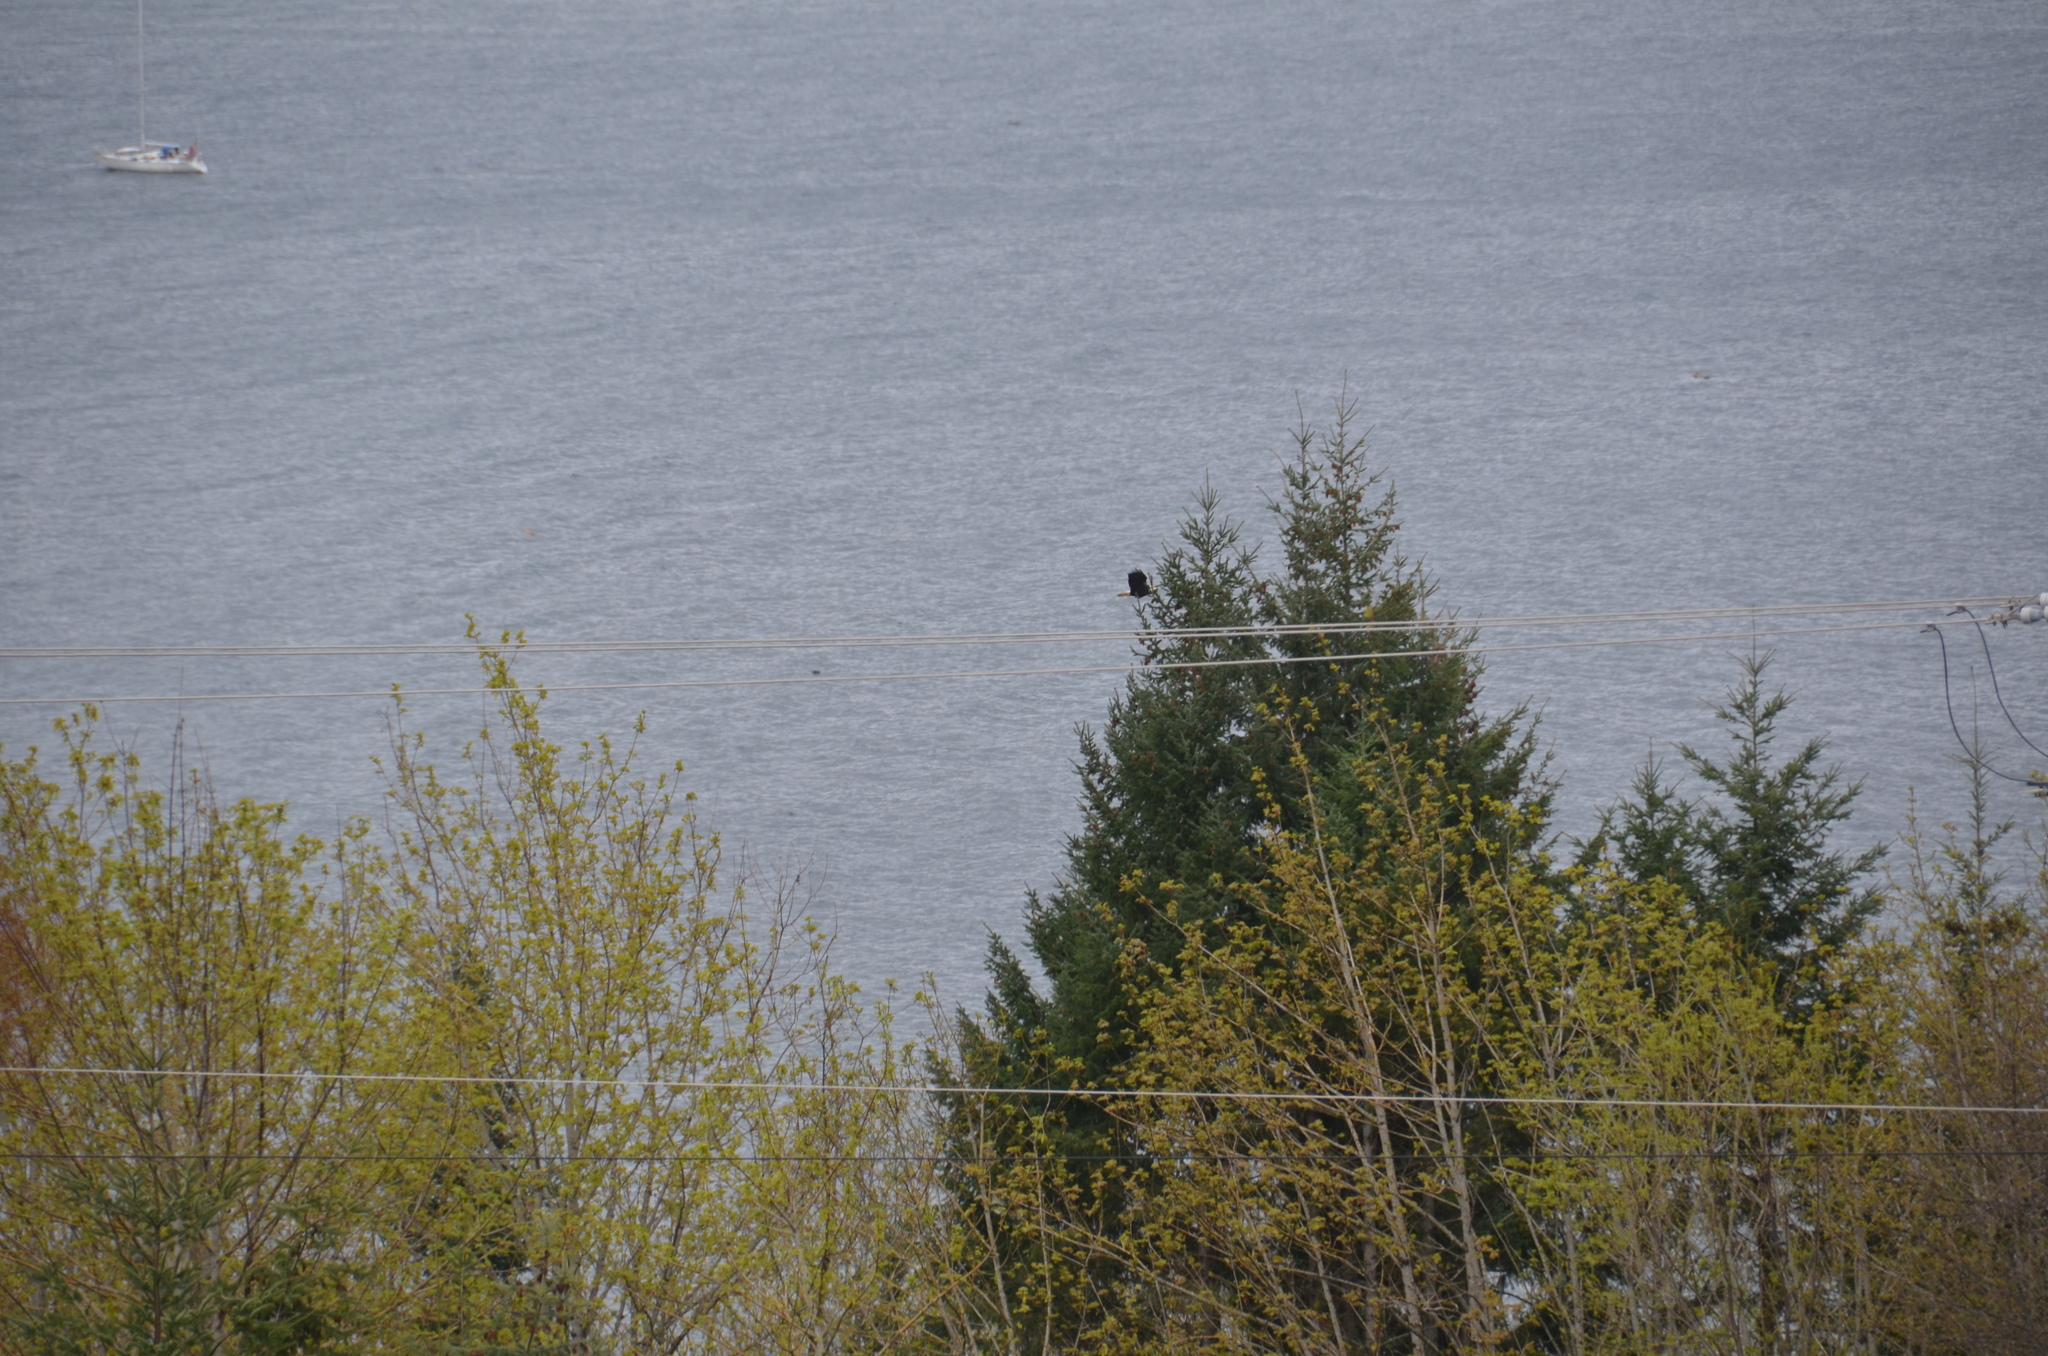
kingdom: Animalia
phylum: Chordata
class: Aves
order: Accipitriformes
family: Accipitridae
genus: Haliaeetus
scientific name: Haliaeetus leucocephalus
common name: Bald eagle
